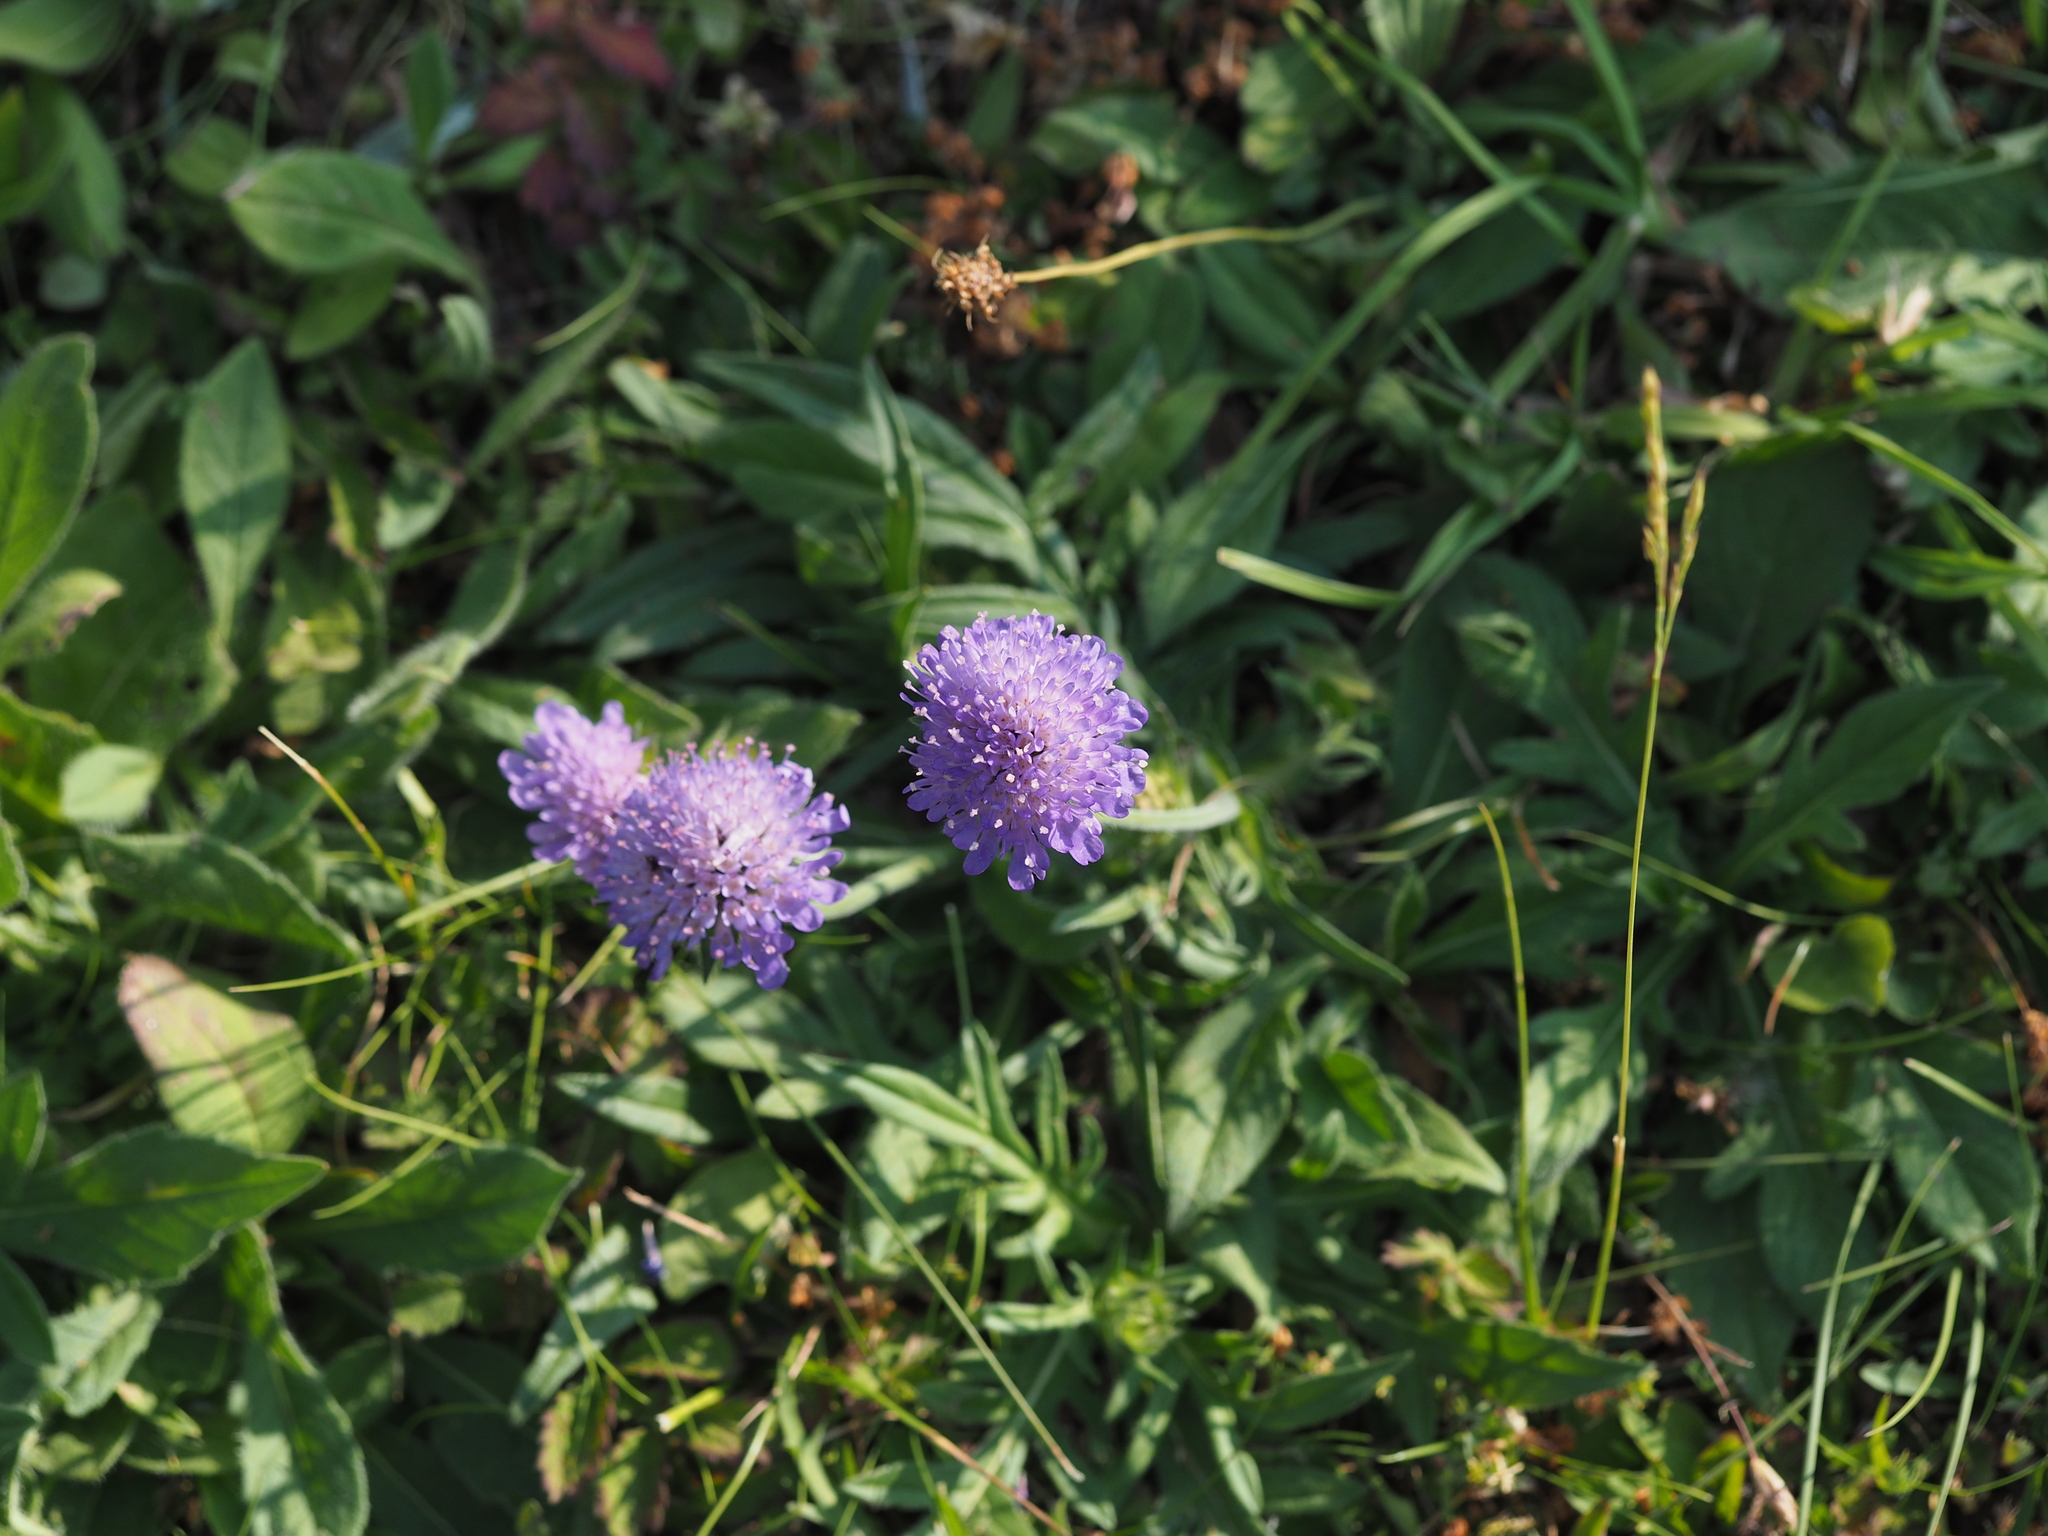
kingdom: Plantae
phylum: Tracheophyta
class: Magnoliopsida
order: Dipsacales
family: Caprifoliaceae
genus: Knautia
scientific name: Knautia arvensis
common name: Field scabiosa
